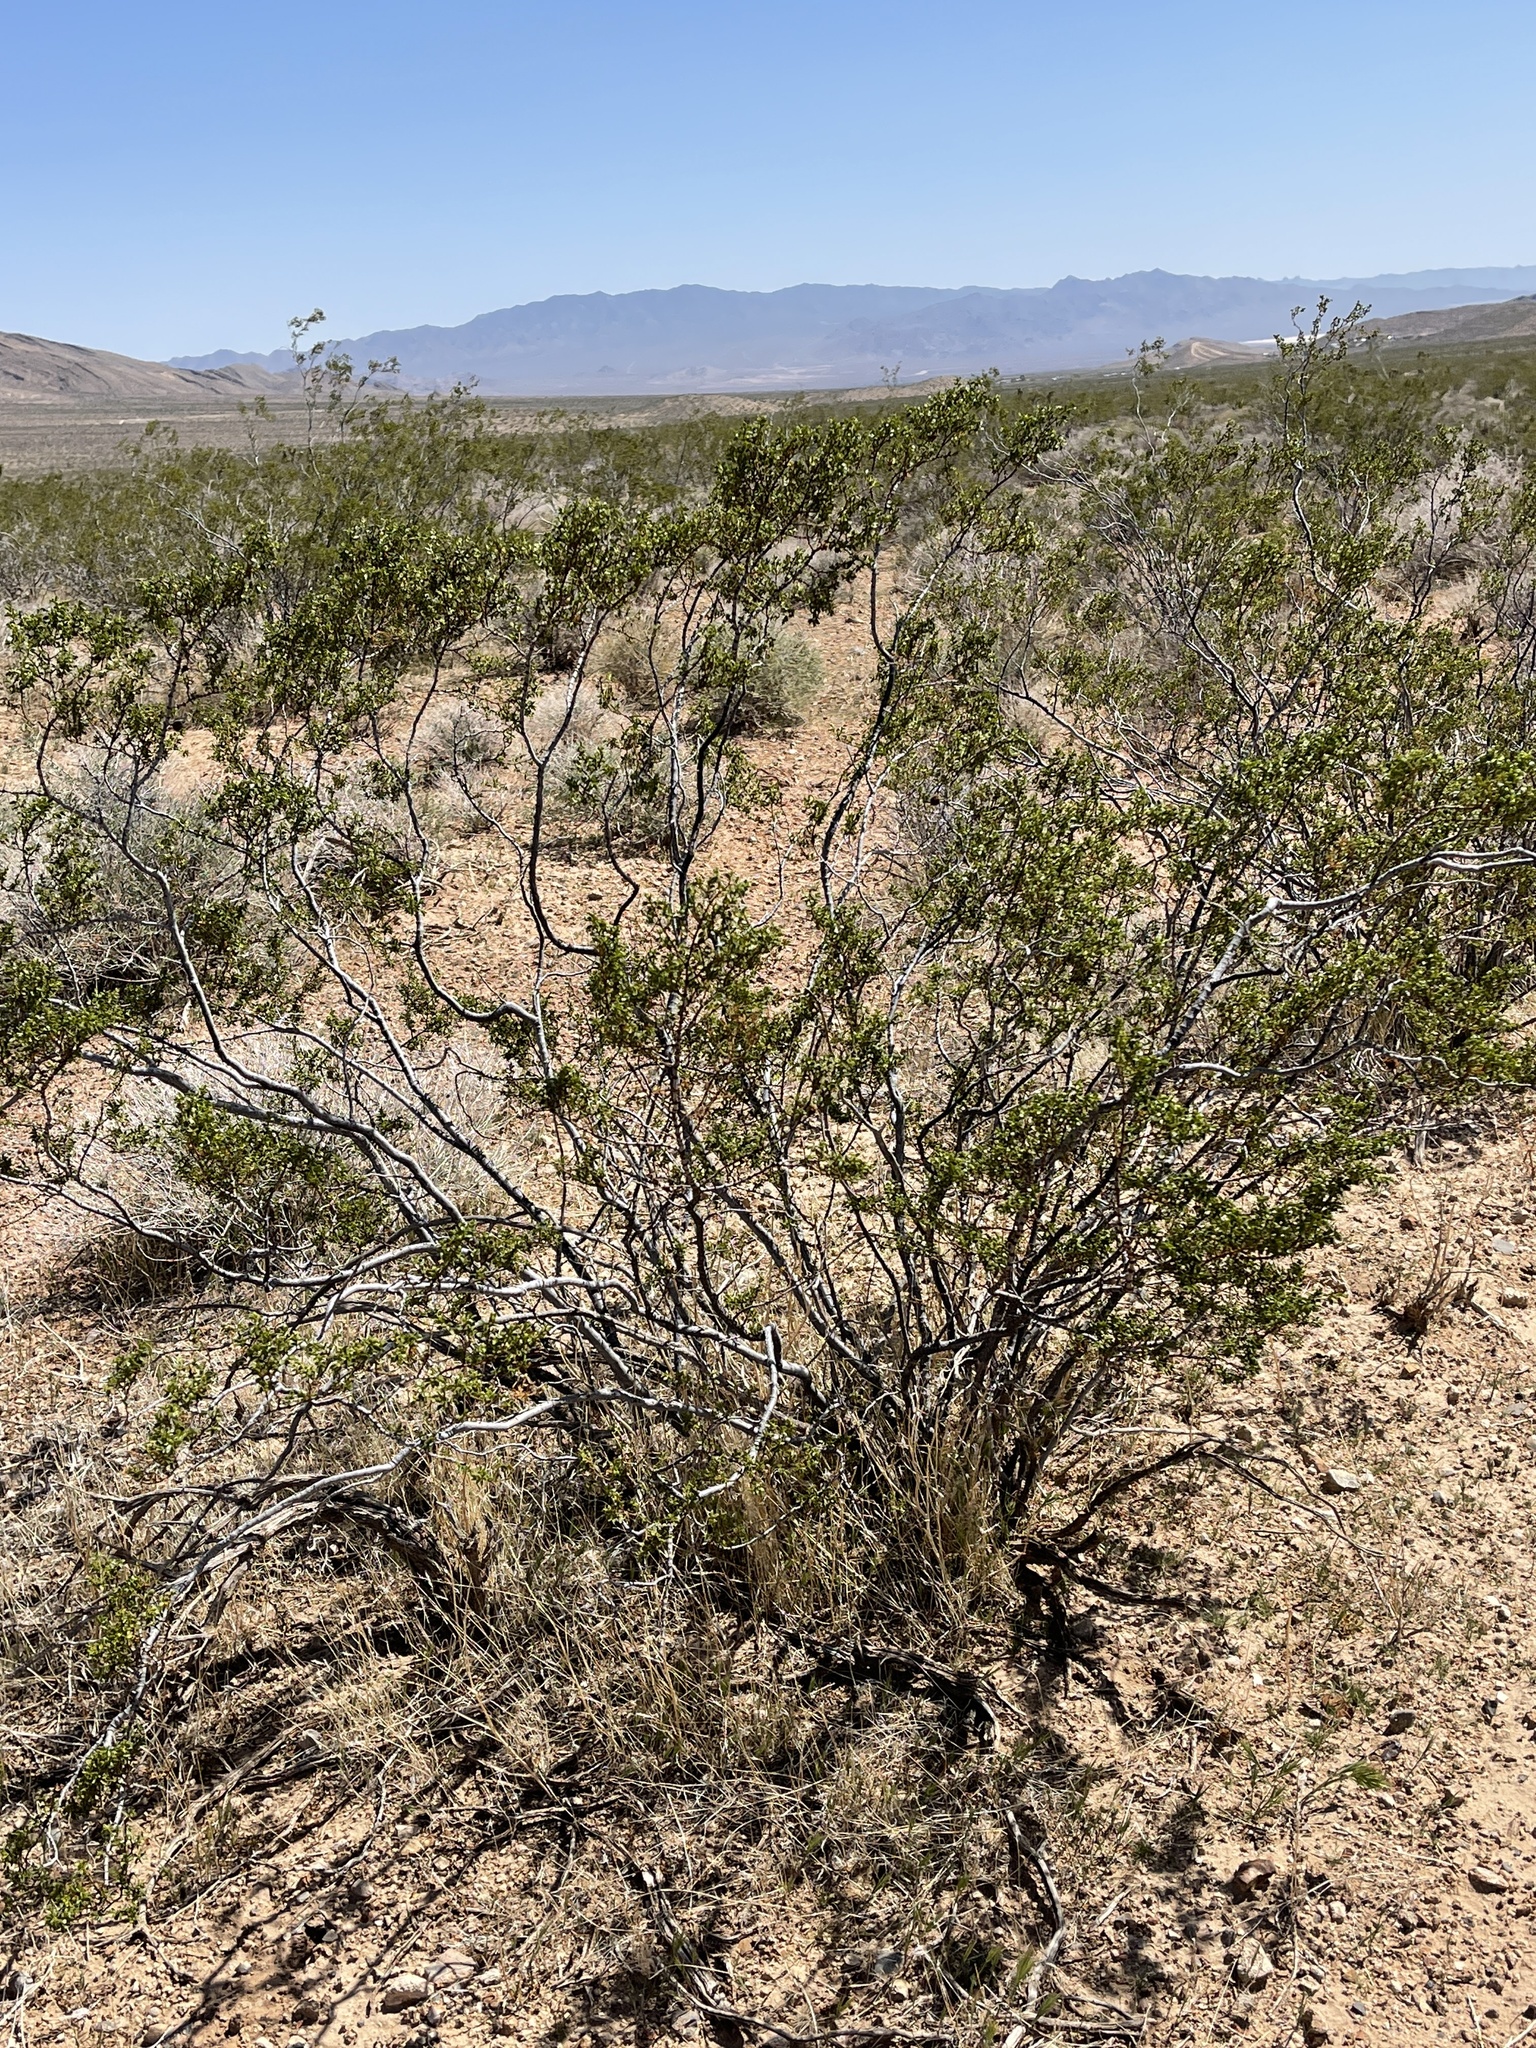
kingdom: Plantae
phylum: Tracheophyta
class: Magnoliopsida
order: Zygophyllales
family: Zygophyllaceae
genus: Larrea
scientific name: Larrea tridentata
